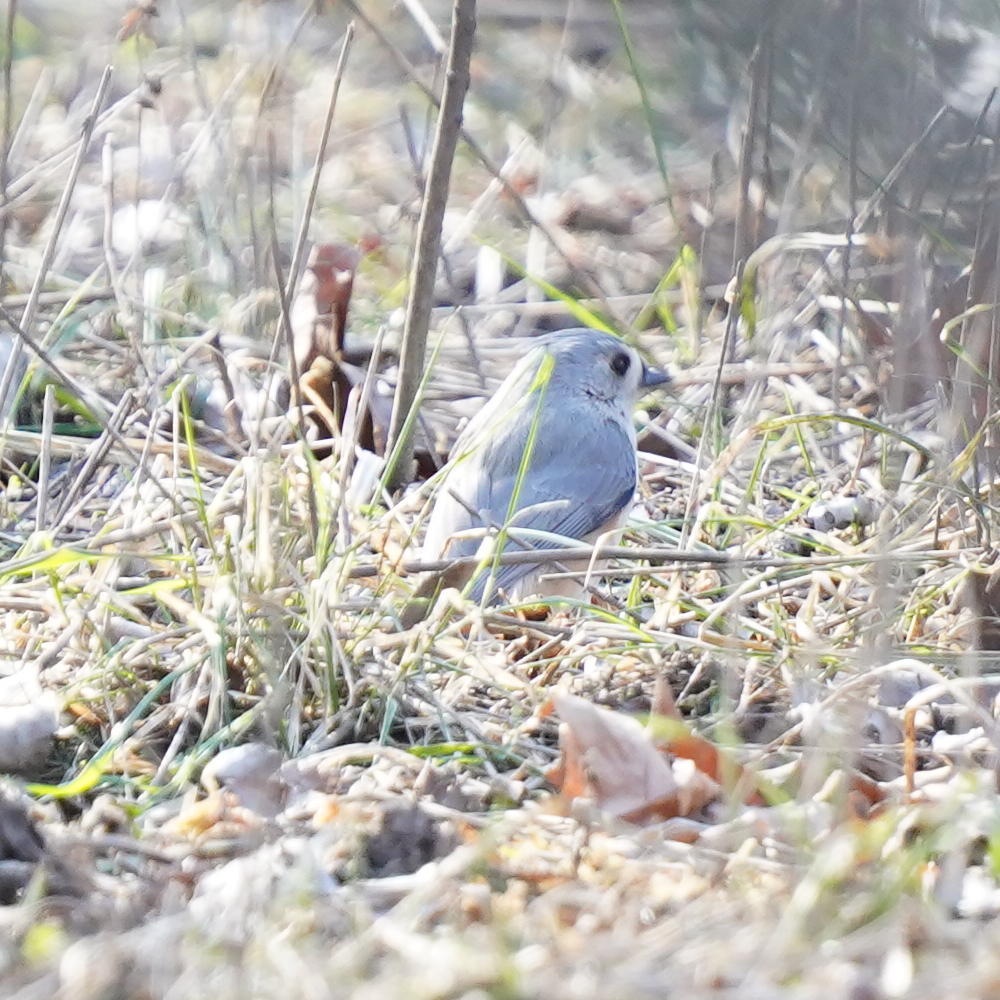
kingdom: Animalia
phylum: Chordata
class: Aves
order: Passeriformes
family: Paridae
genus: Baeolophus
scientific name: Baeolophus bicolor
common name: Tufted titmouse
